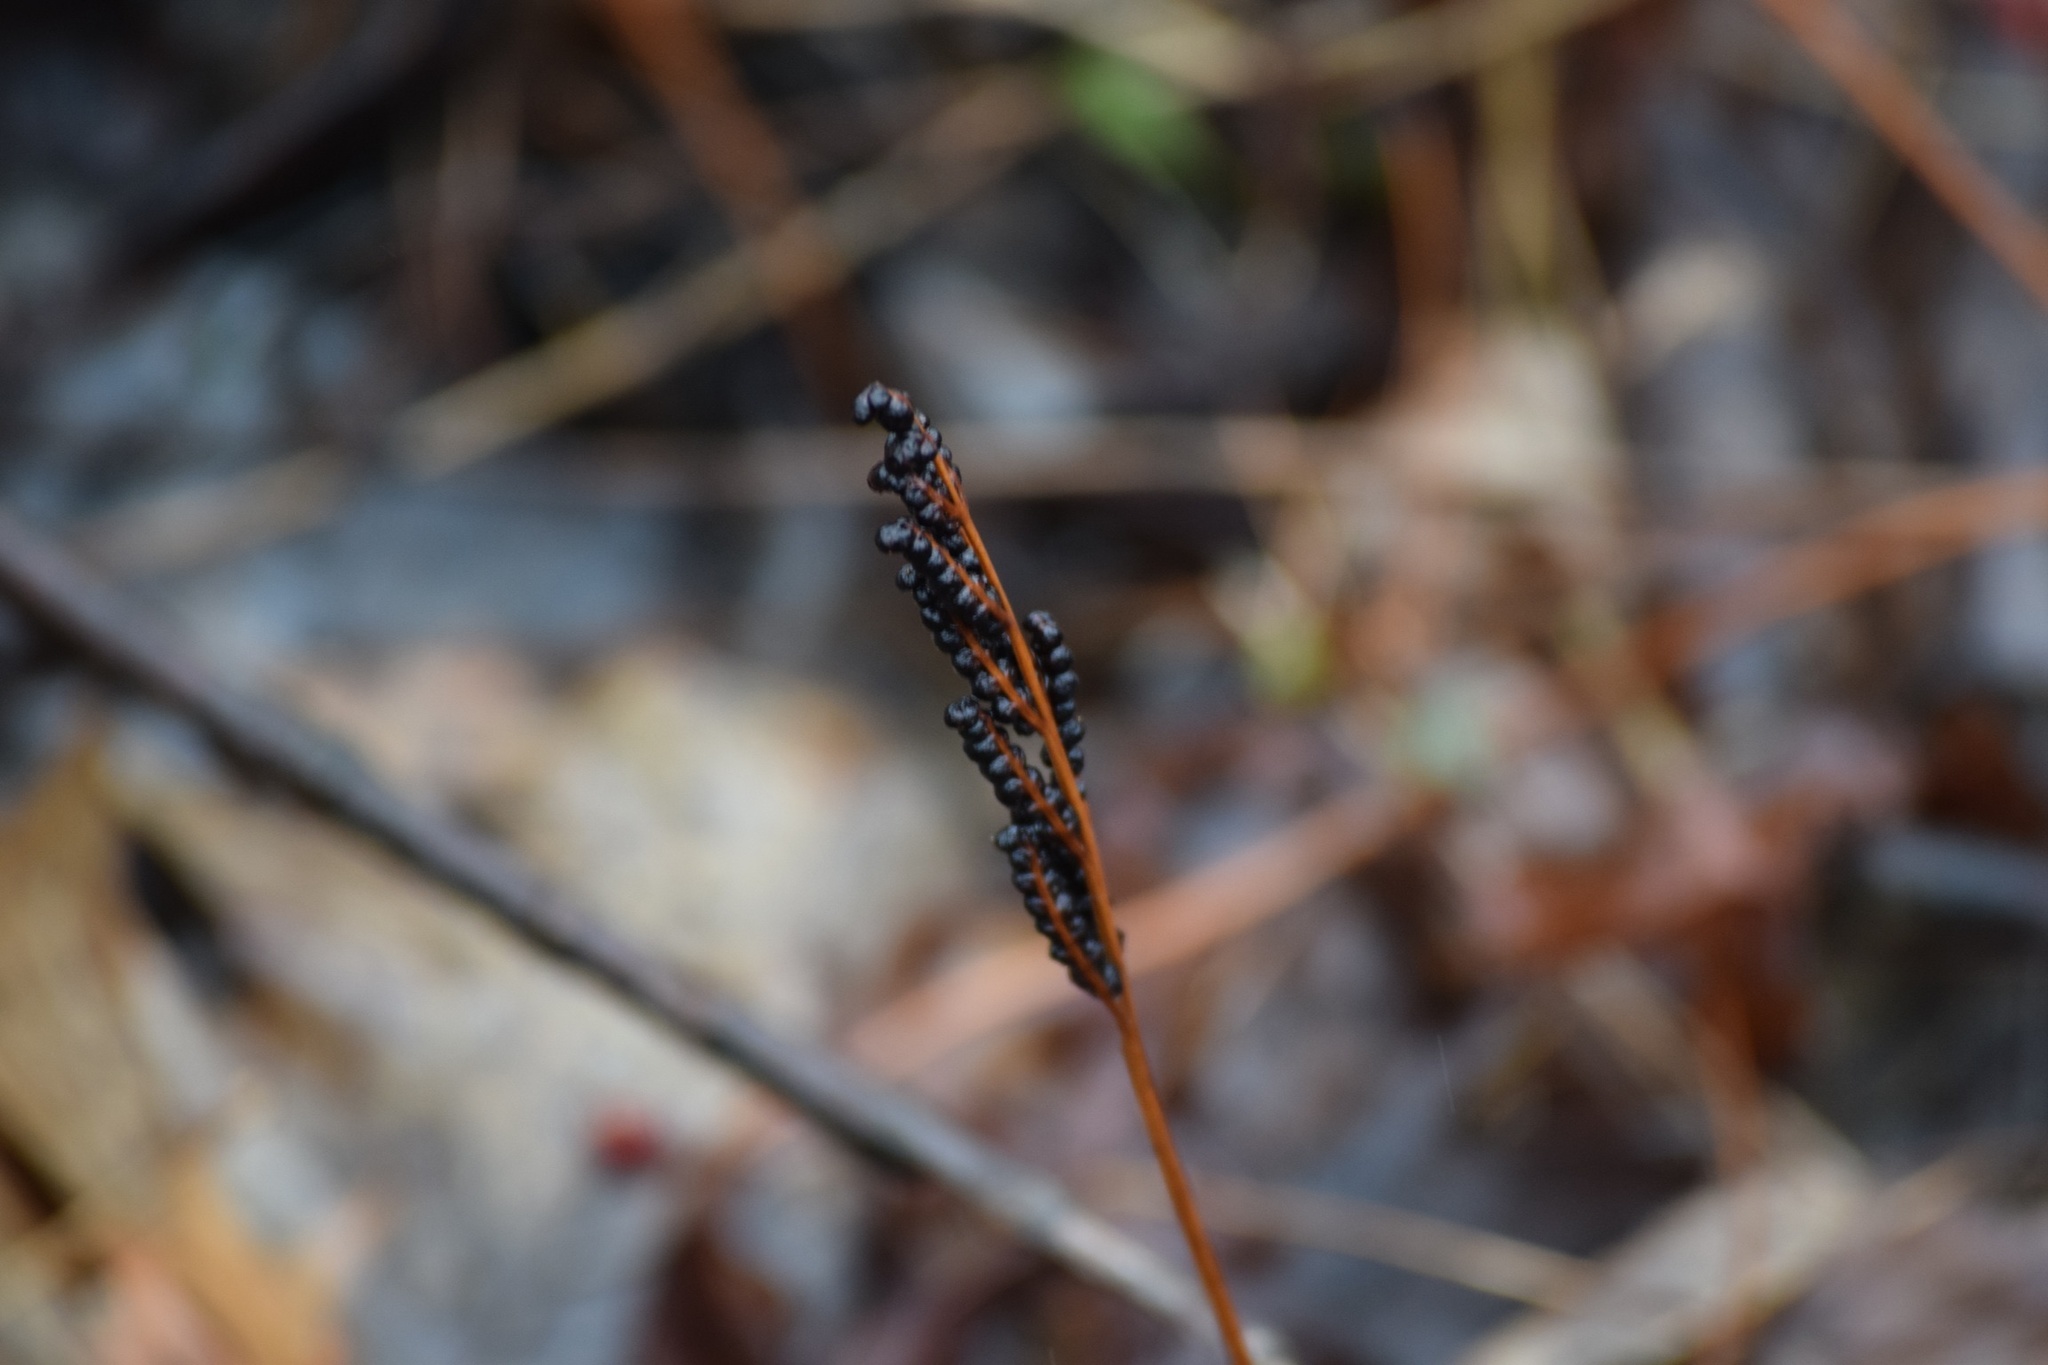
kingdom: Plantae
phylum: Tracheophyta
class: Polypodiopsida
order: Polypodiales
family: Onocleaceae
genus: Onoclea
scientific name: Onoclea sensibilis
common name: Sensitive fern
